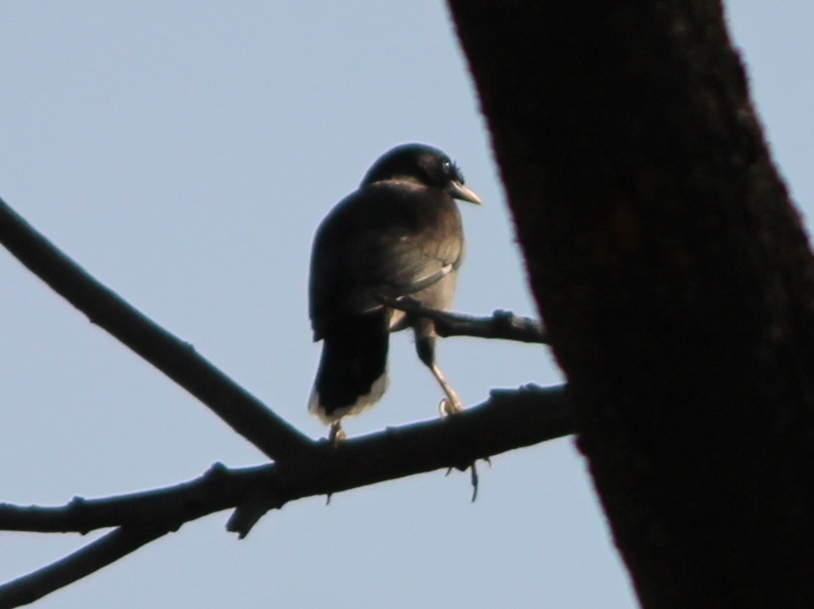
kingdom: Animalia
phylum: Chordata
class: Aves
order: Passeriformes
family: Sturnidae
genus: Acridotheres
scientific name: Acridotheres fuscus
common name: Jungle myna
